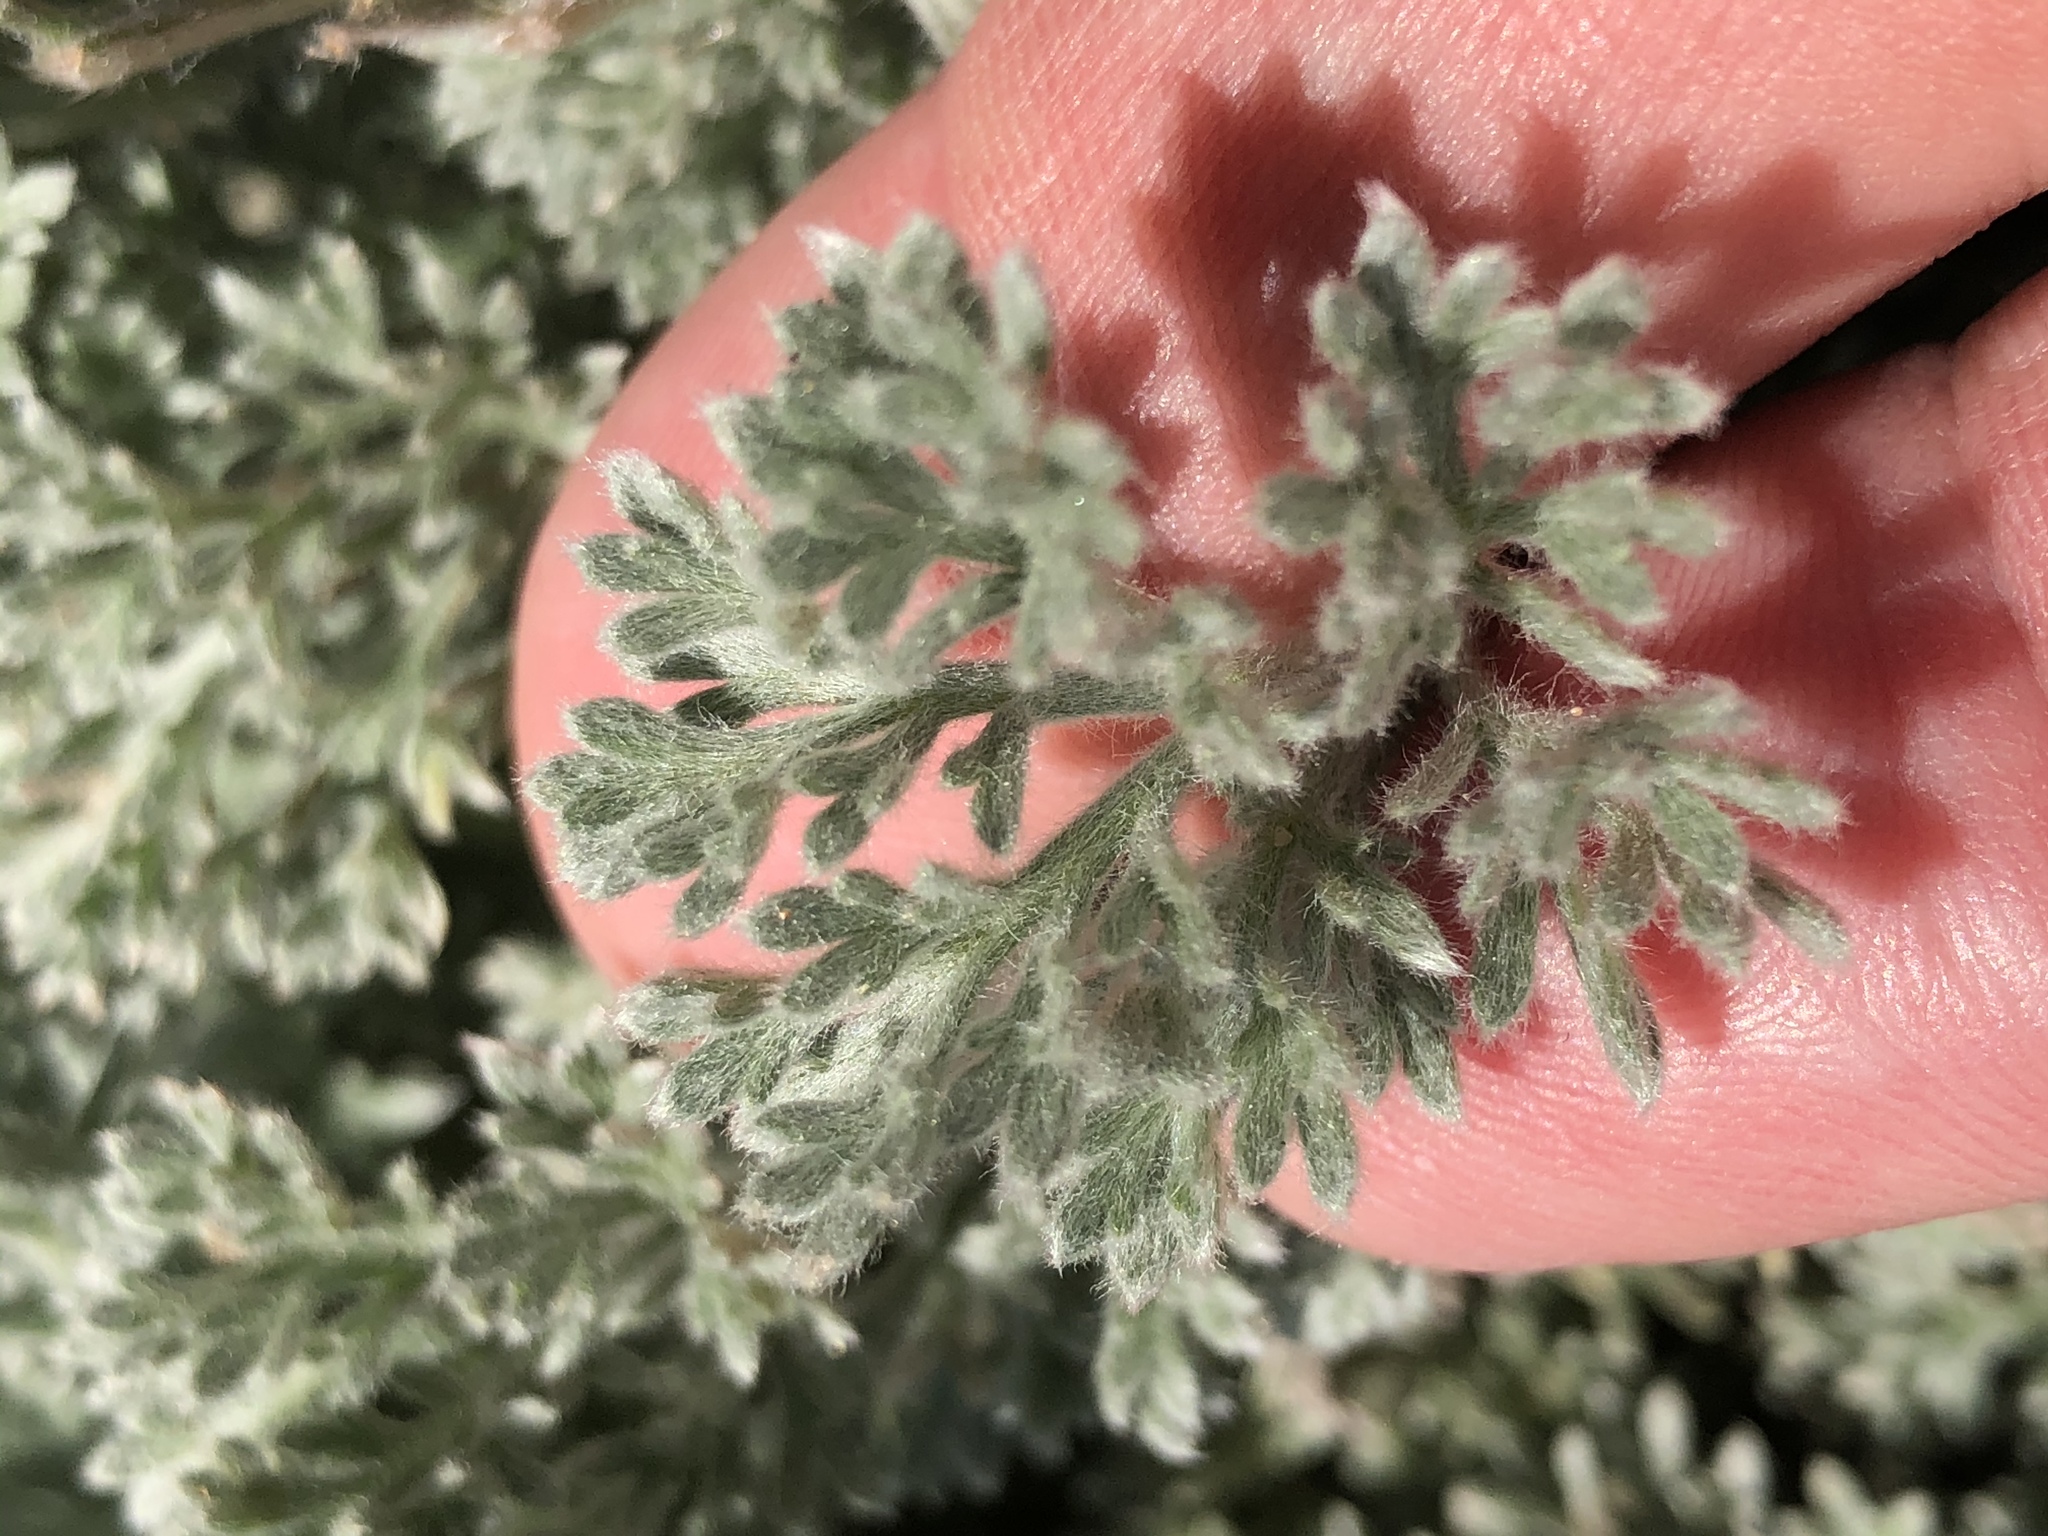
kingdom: Plantae
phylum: Tracheophyta
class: Magnoliopsida
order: Asterales
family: Asteraceae
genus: Artemisia
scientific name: Artemisia pycnocephala
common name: Coastal sagewort
